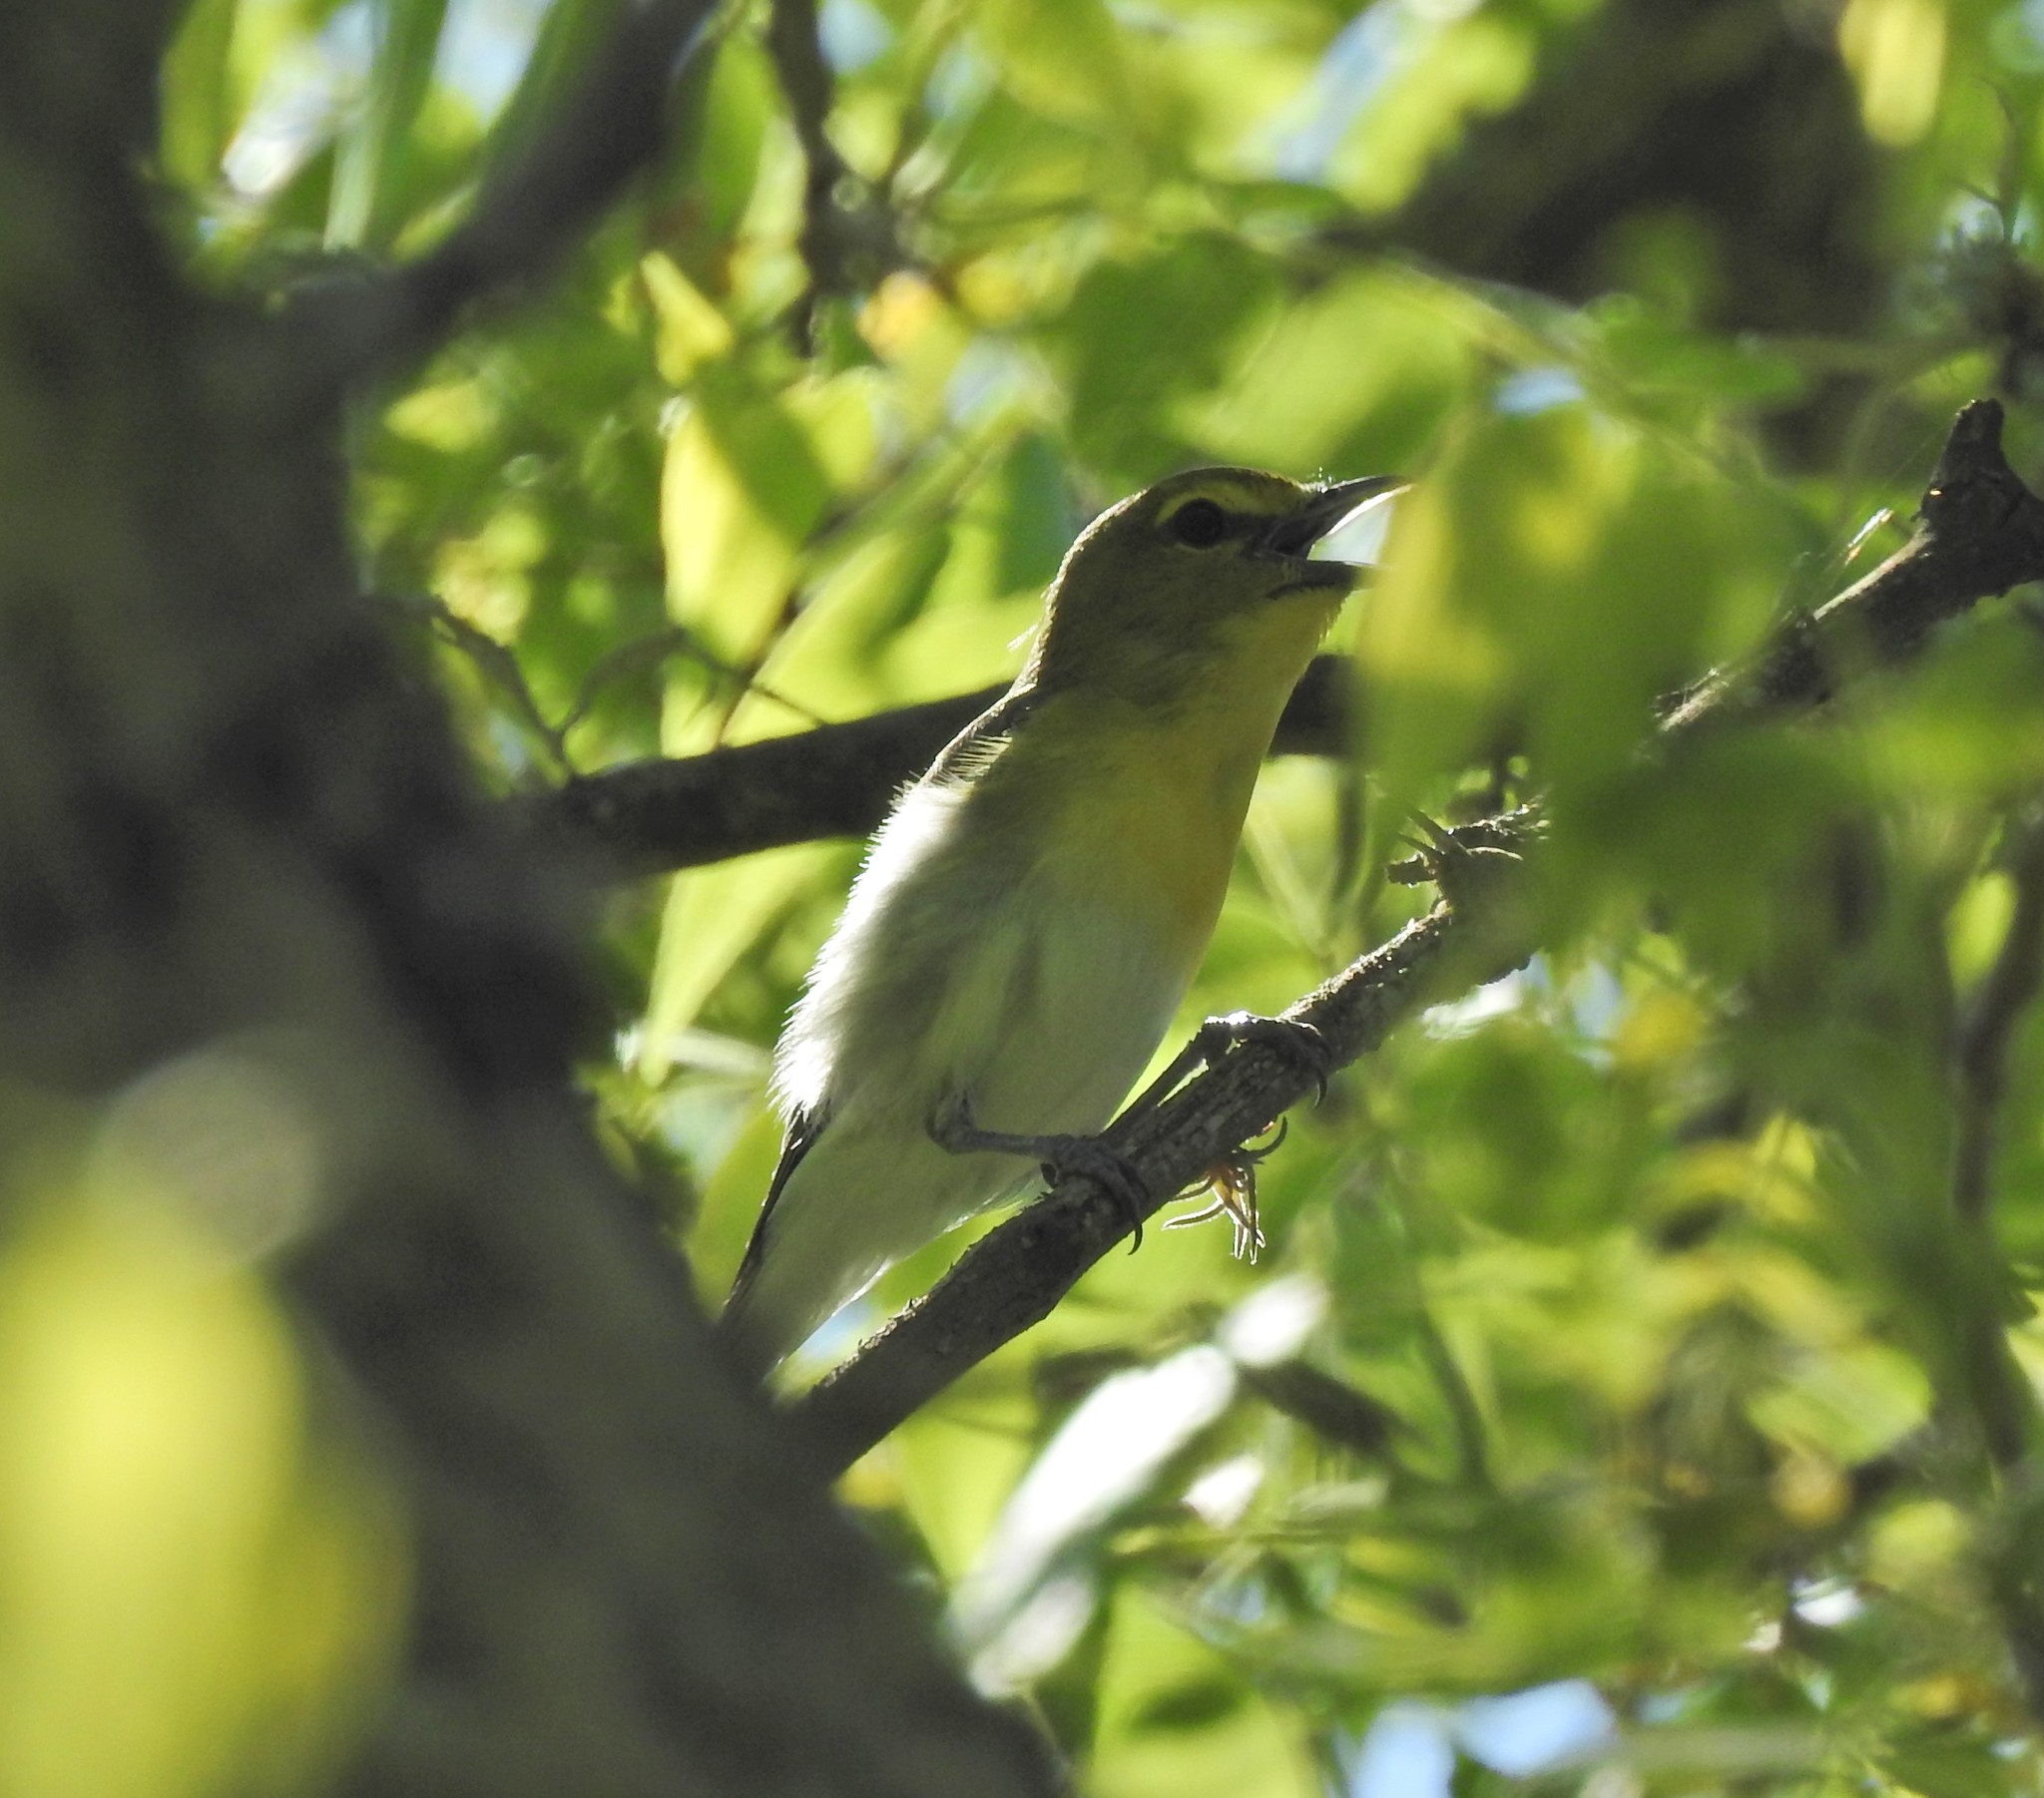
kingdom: Animalia
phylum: Chordata
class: Aves
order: Passeriformes
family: Vireonidae
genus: Vireo
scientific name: Vireo flavifrons
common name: Yellow-throated vireo
